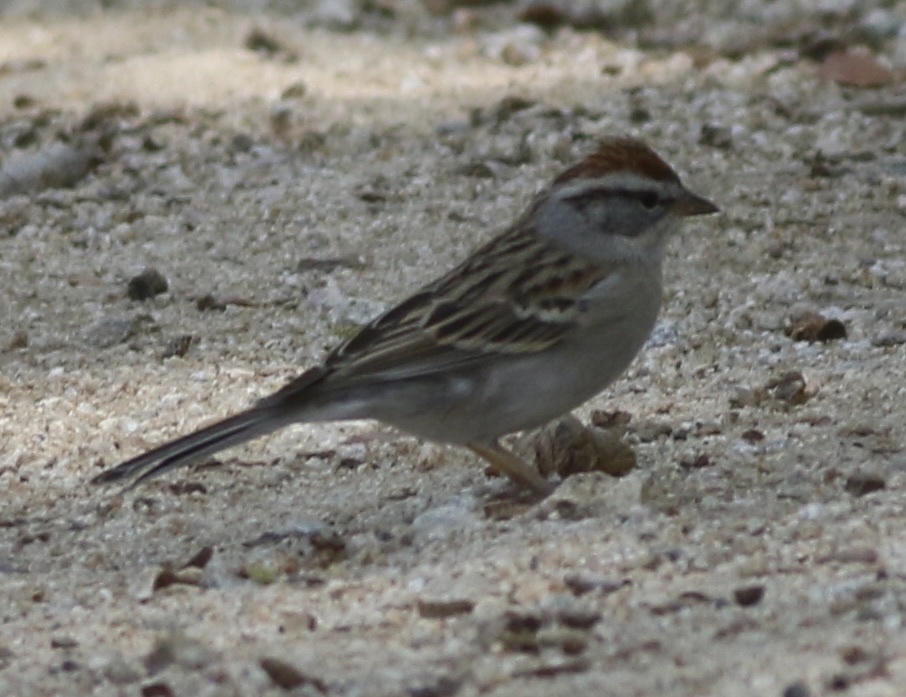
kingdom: Animalia
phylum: Chordata
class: Aves
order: Passeriformes
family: Passerellidae
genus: Spizella
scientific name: Spizella passerina
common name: Chipping sparrow
